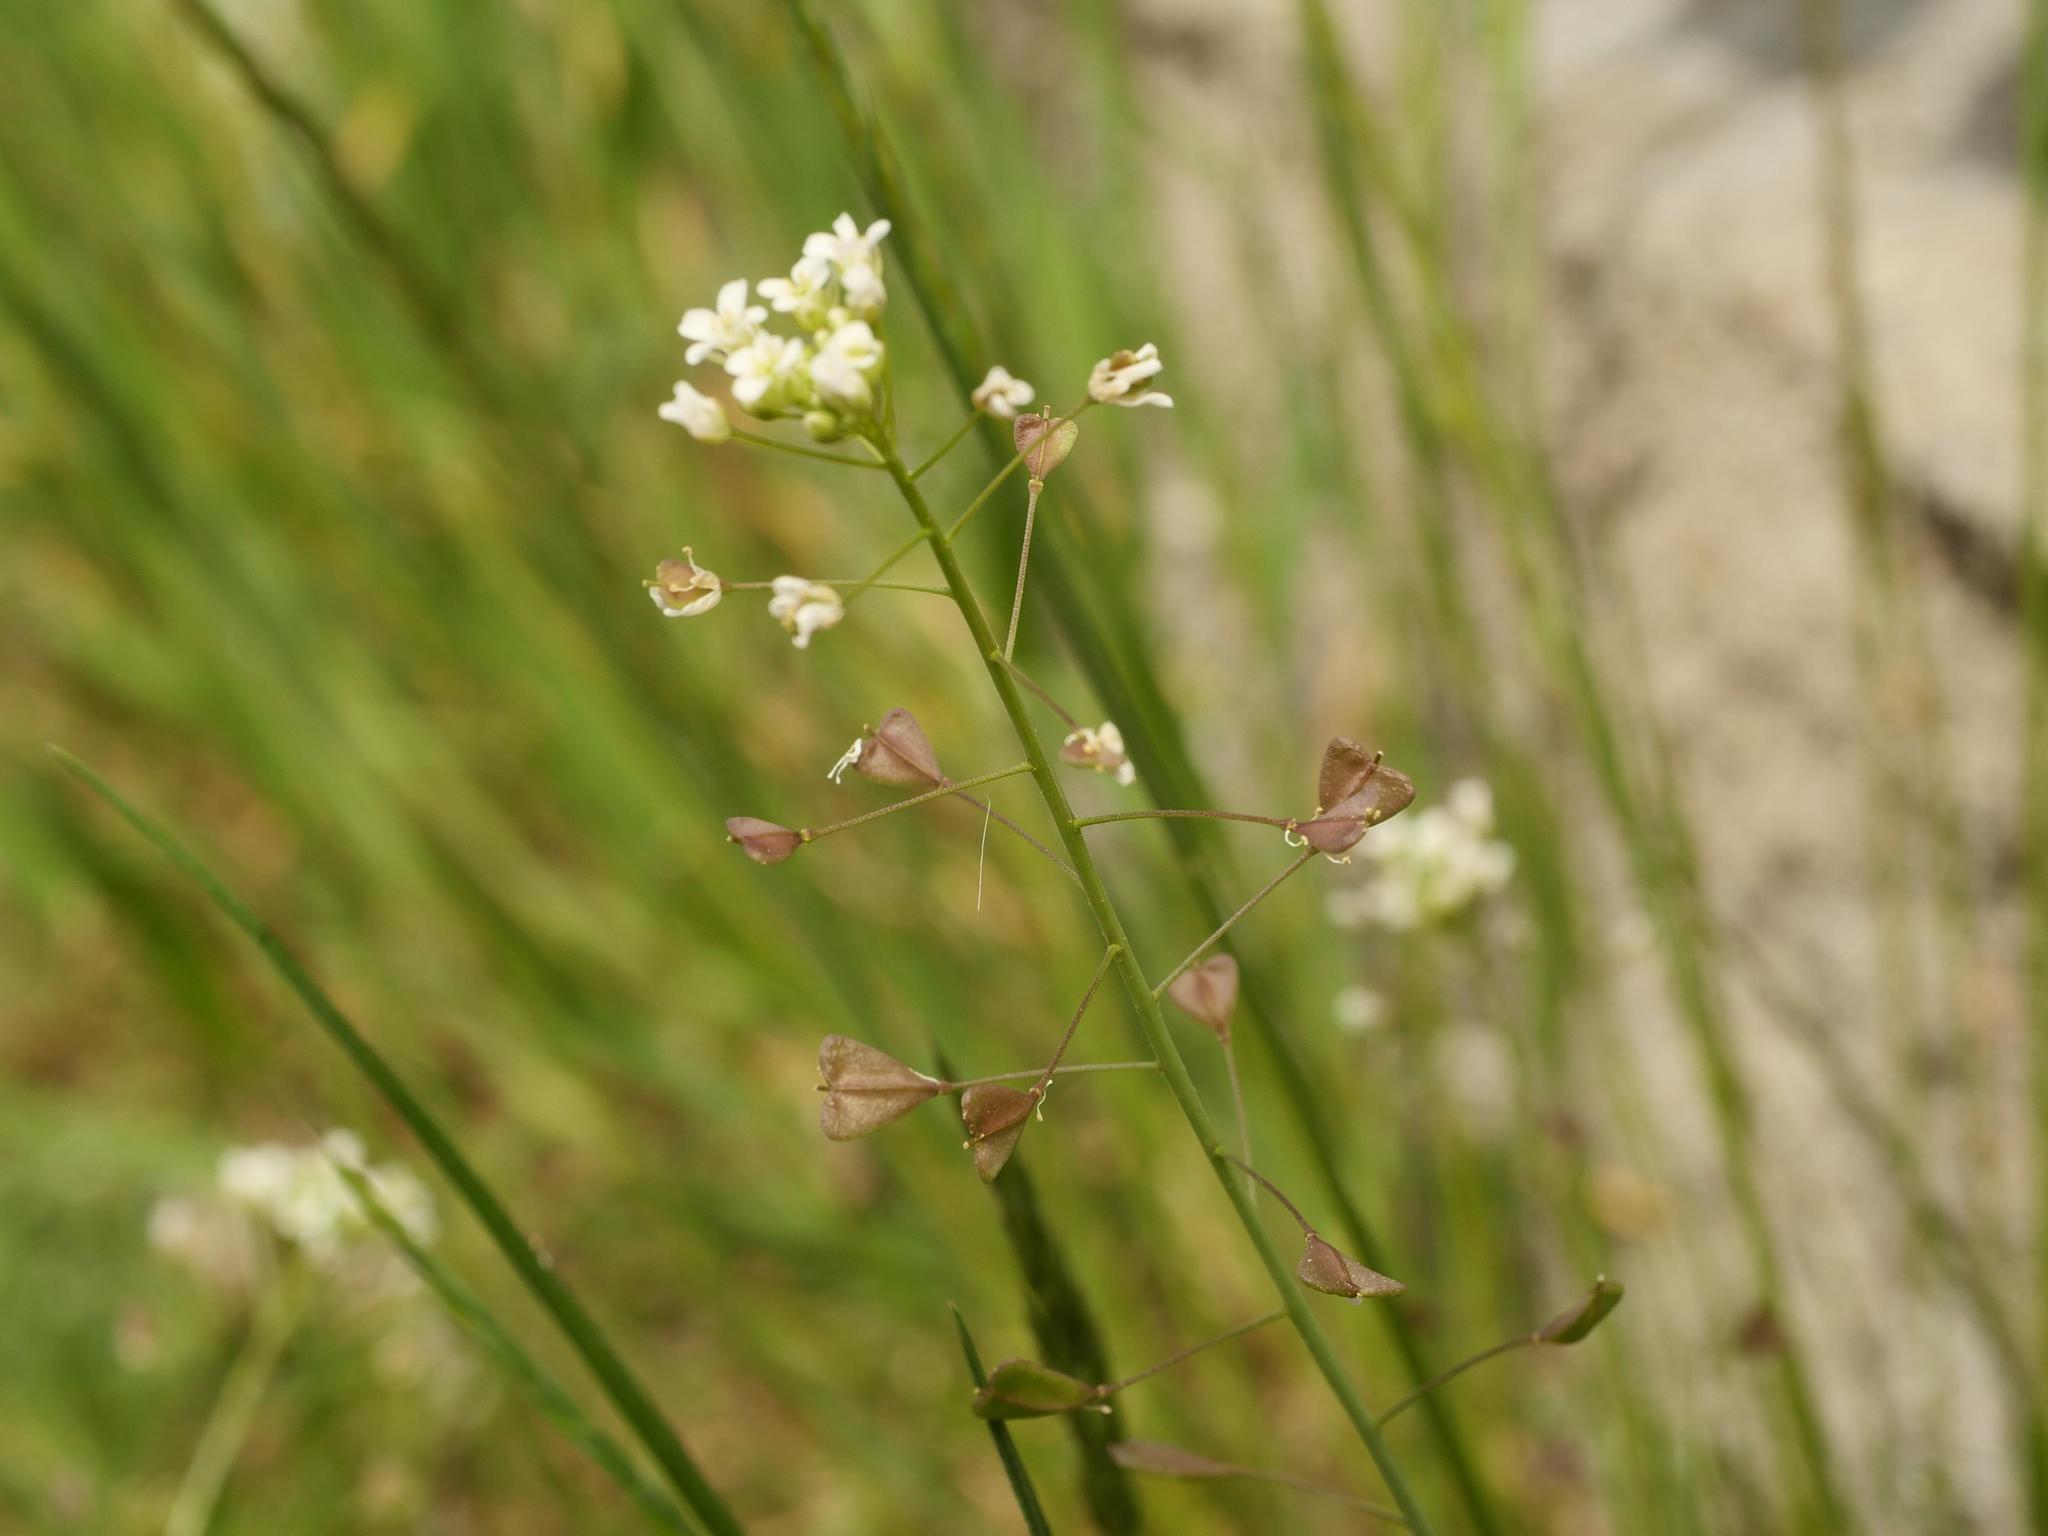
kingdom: Plantae
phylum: Tracheophyta
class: Magnoliopsida
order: Brassicales
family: Brassicaceae
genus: Capsella
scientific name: Capsella bursa-pastoris
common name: Shepherd's purse
